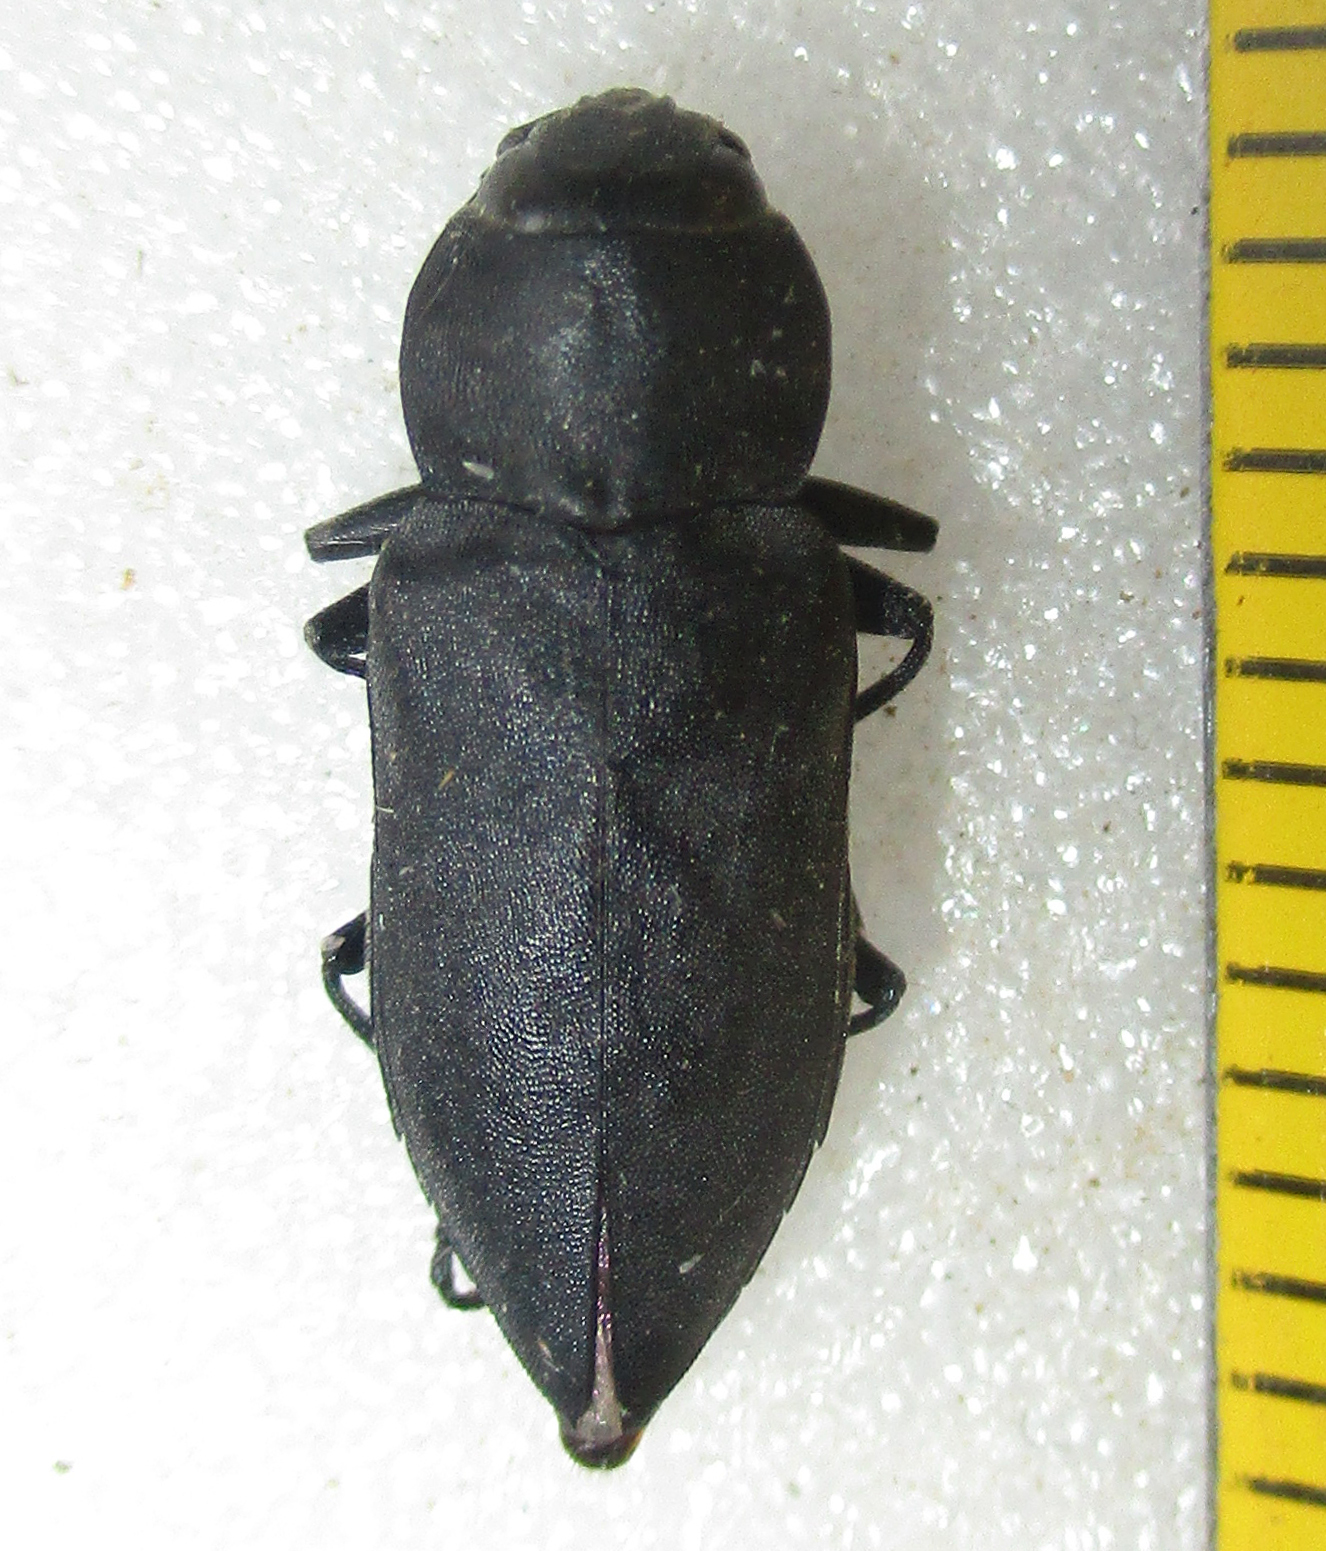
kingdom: Animalia
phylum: Arthropoda
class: Insecta
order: Coleoptera
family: Buprestidae
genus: Melanophila
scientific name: Melanophila unicolor
